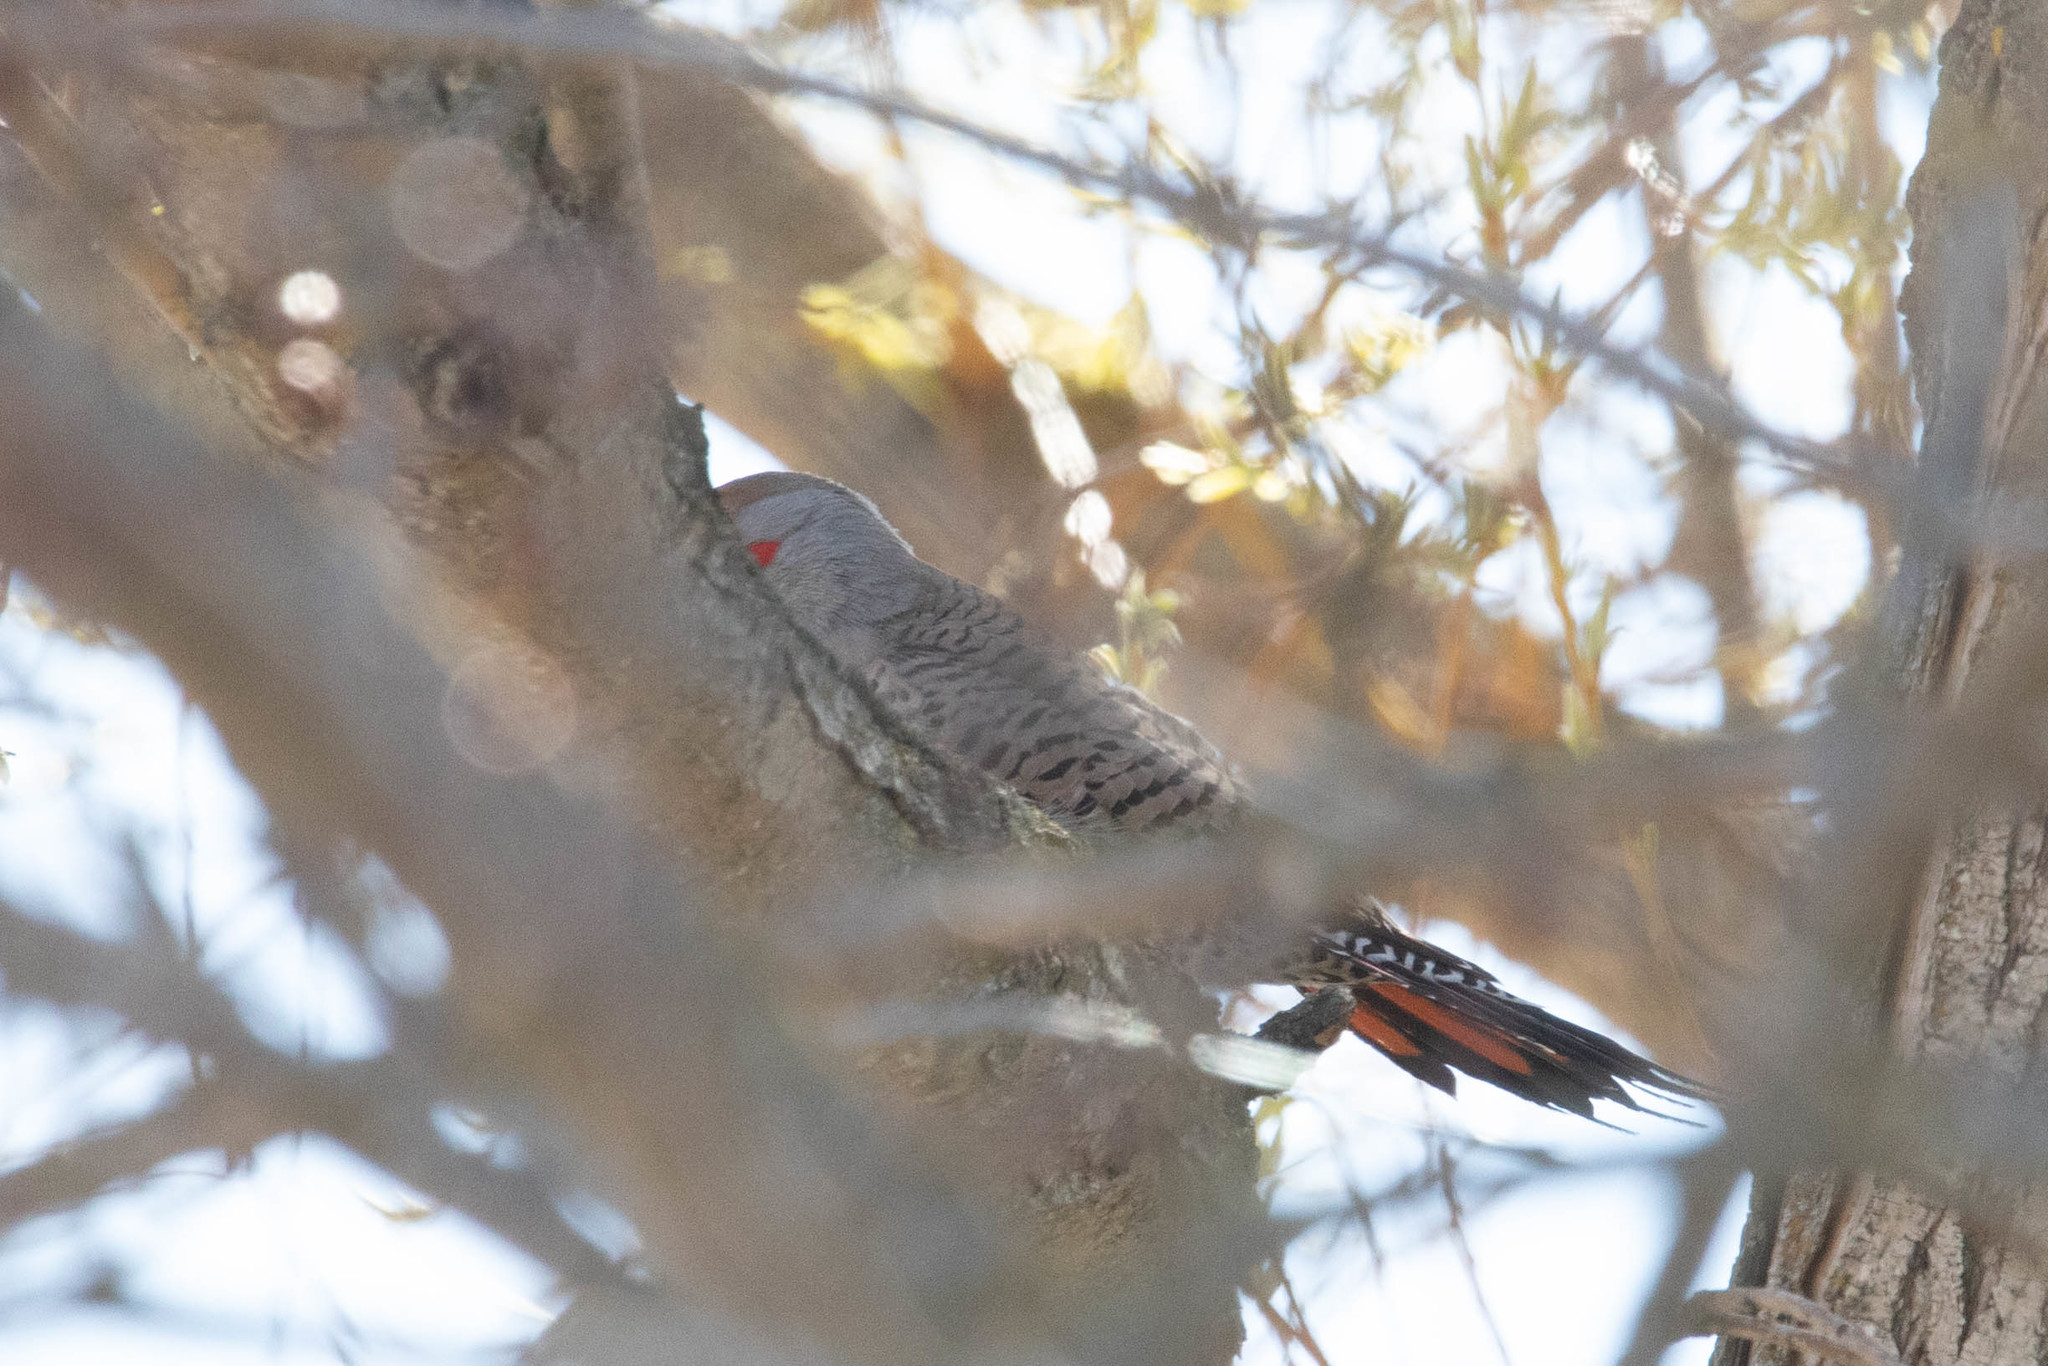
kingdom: Animalia
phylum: Chordata
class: Aves
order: Piciformes
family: Picidae
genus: Colaptes
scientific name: Colaptes auratus
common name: Northern flicker
